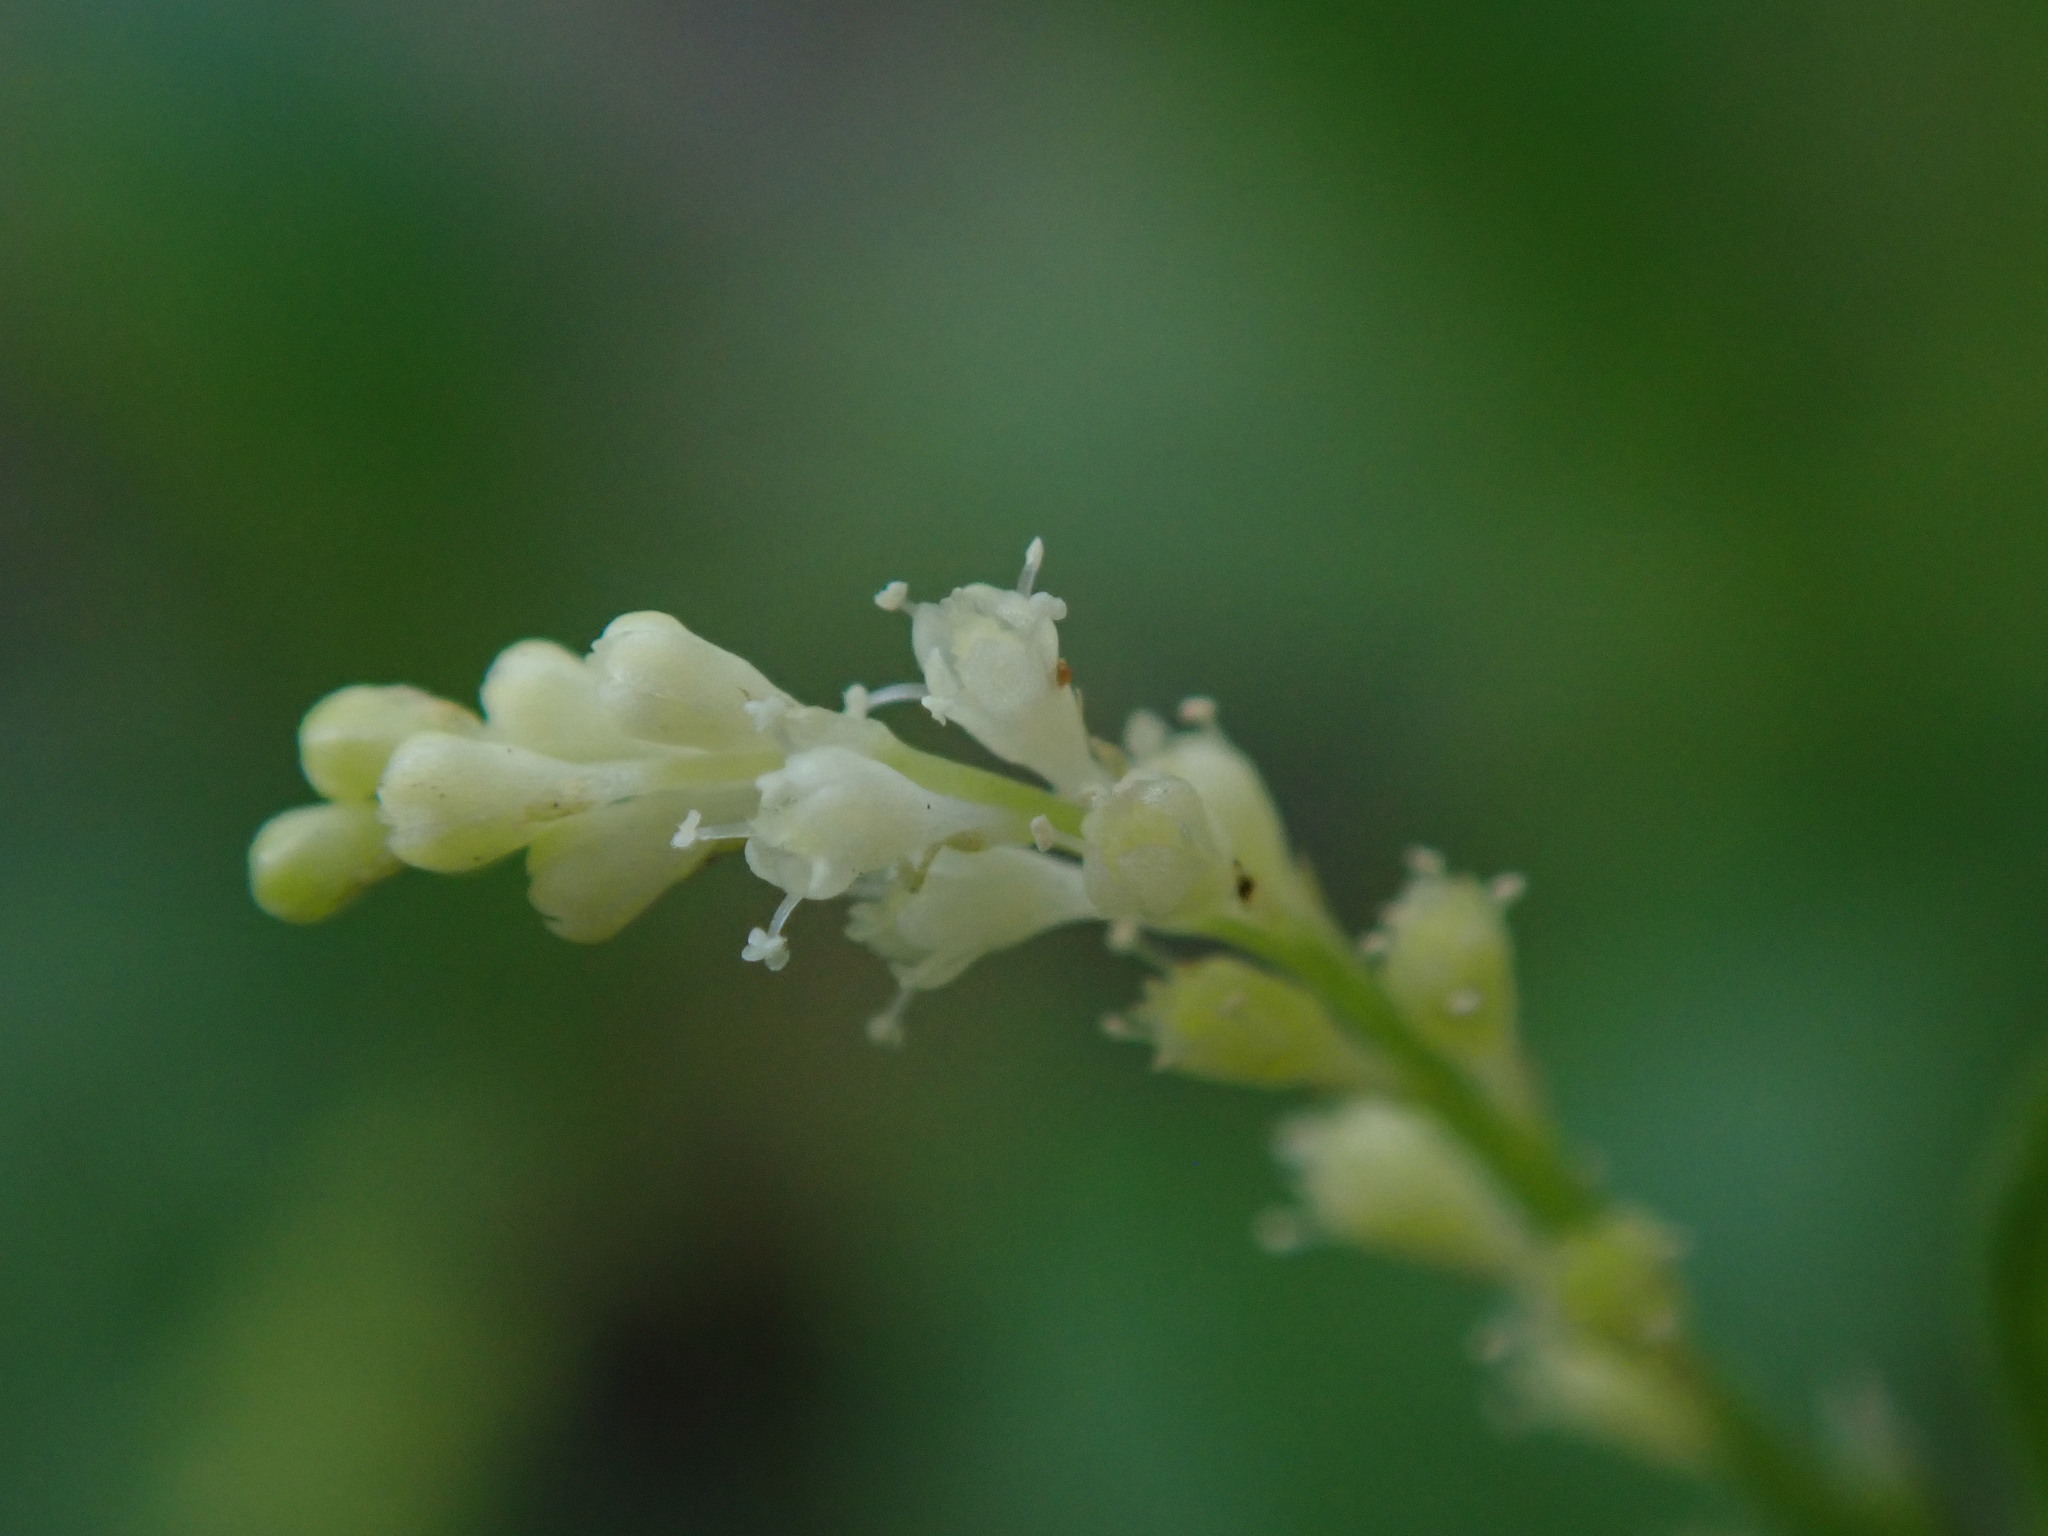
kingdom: Plantae
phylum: Tracheophyta
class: Magnoliopsida
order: Caryophyllales
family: Microteaceae
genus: Microtea
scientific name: Microtea debilis
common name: Weak jumby peppe
